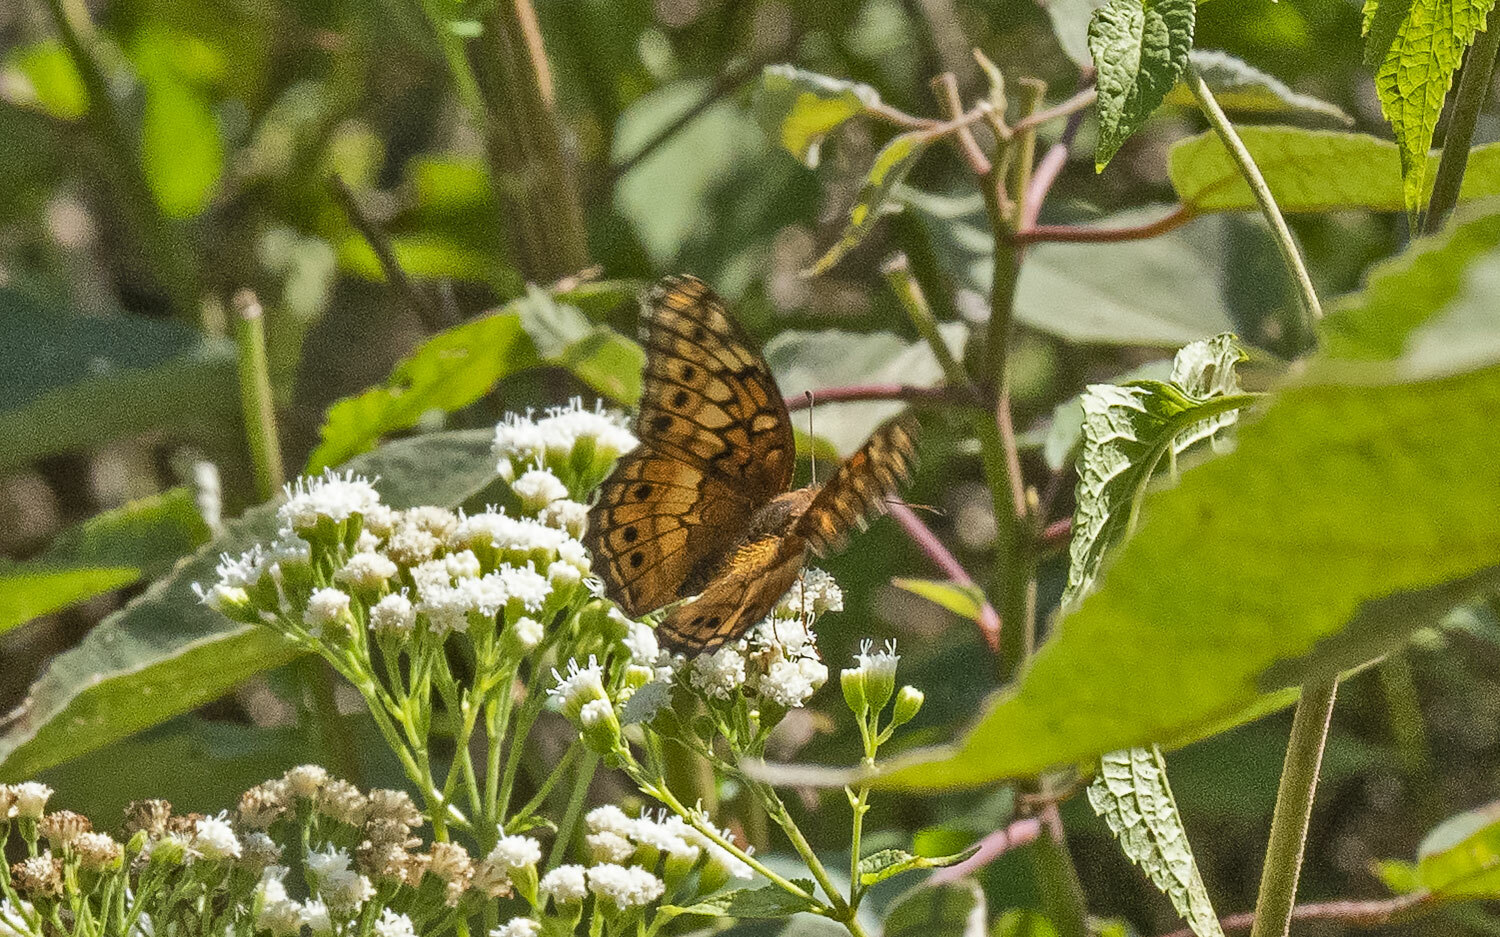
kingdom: Animalia
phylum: Arthropoda
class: Insecta
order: Lepidoptera
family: Nymphalidae
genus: Euptoieta
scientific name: Euptoieta claudia
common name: Variegated fritillary
